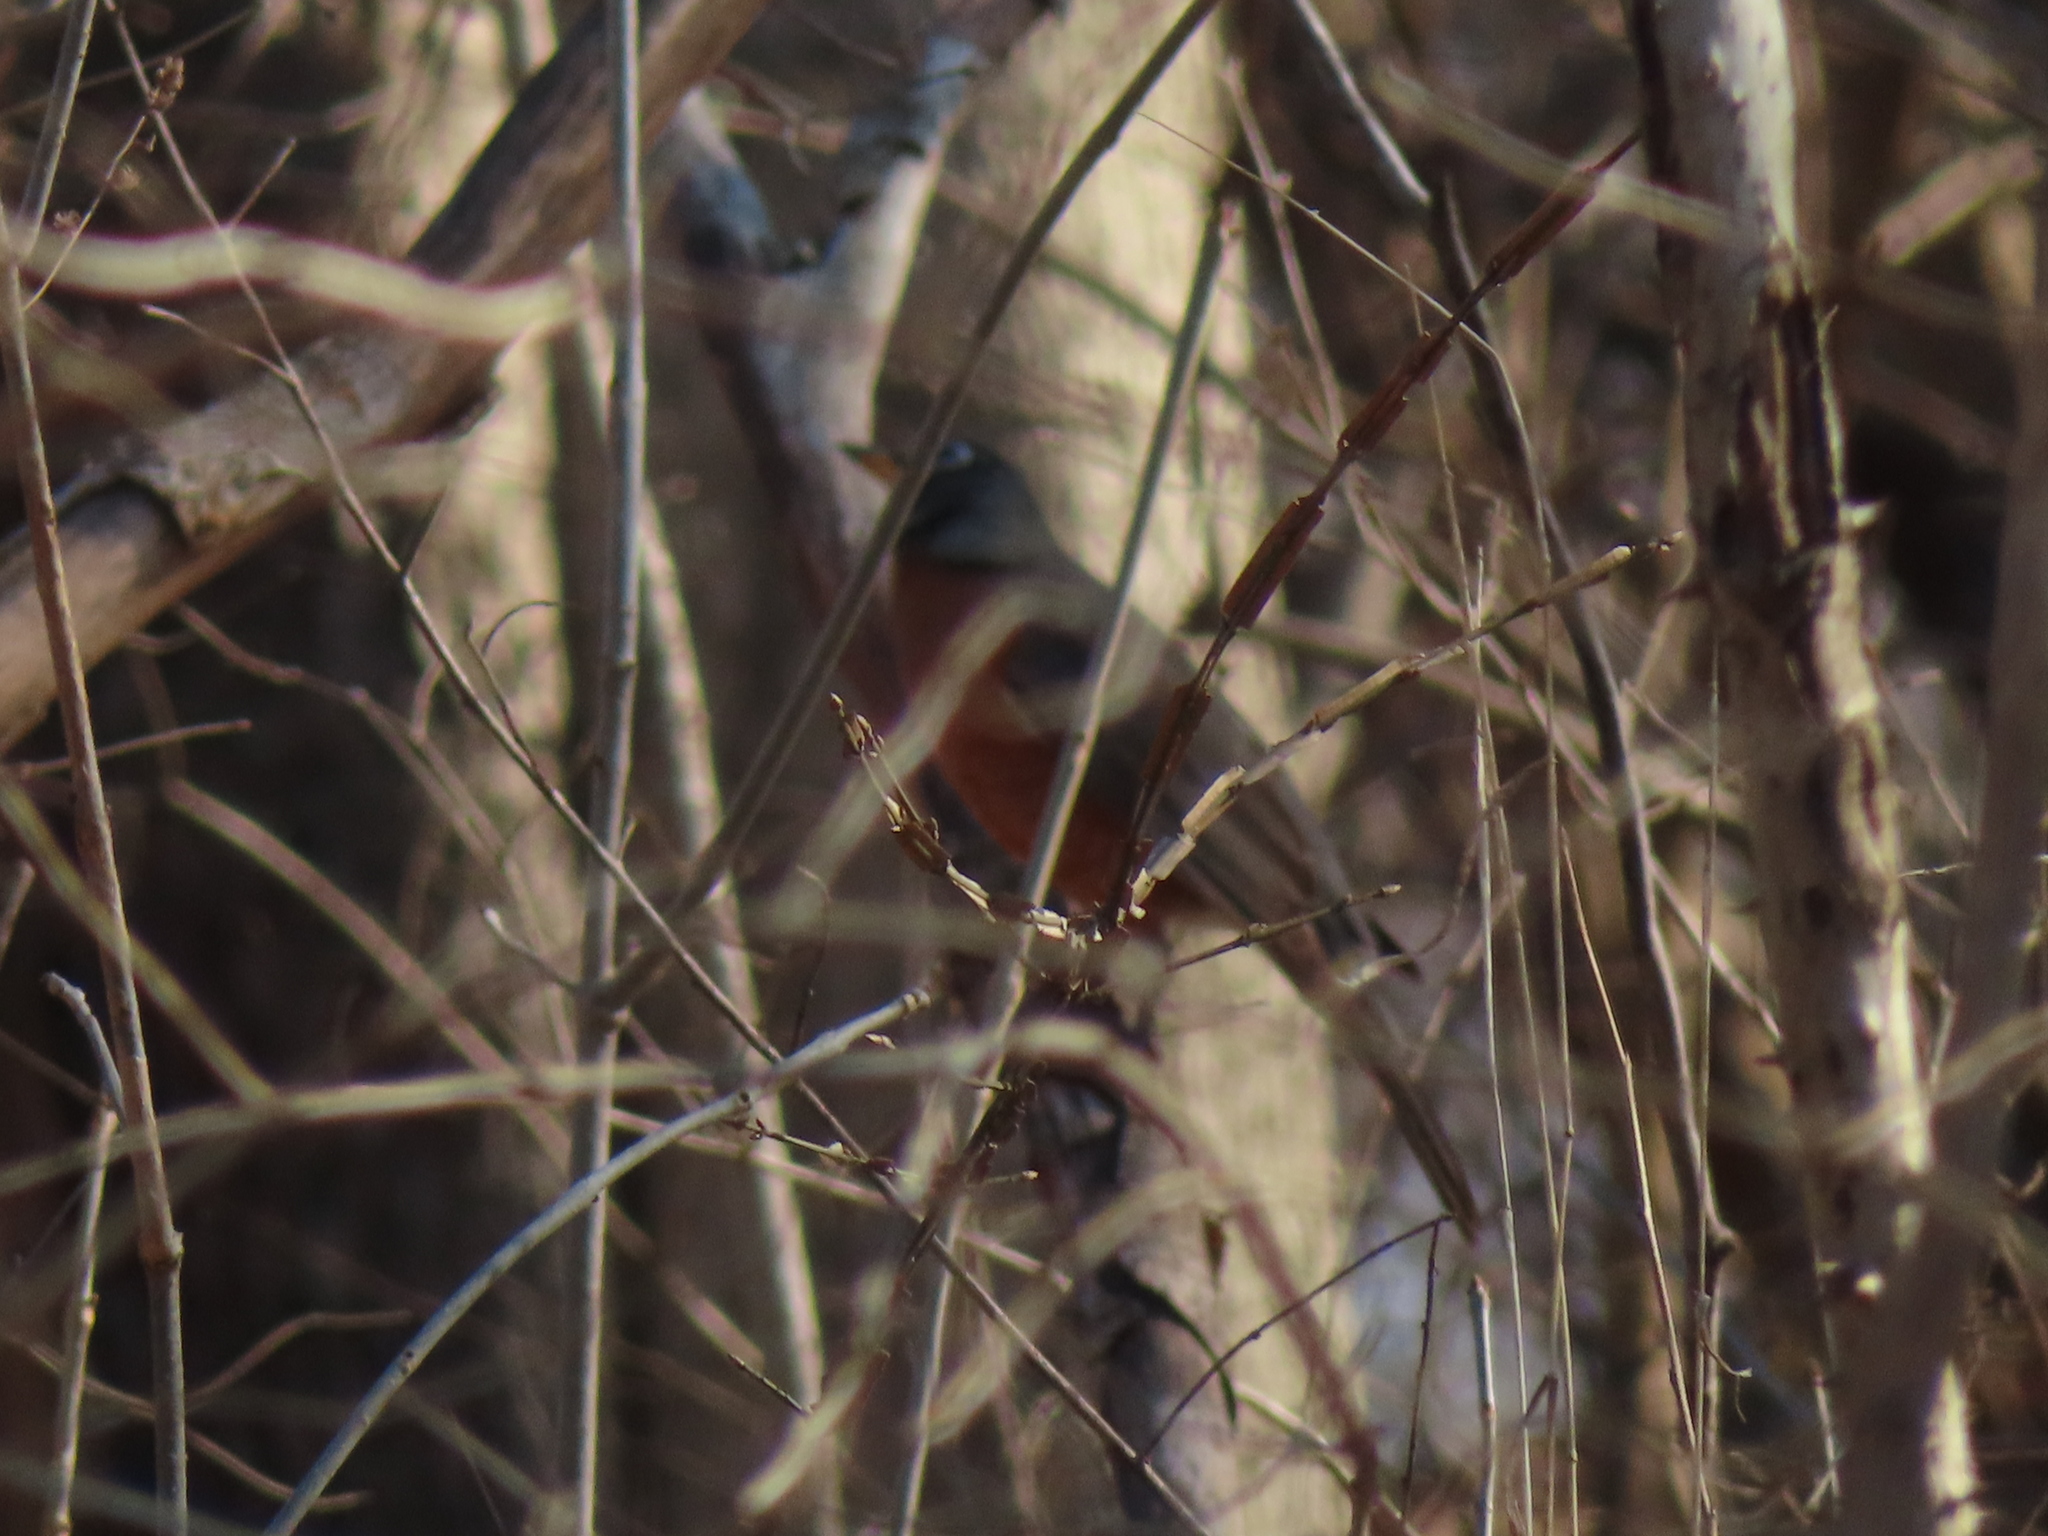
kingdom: Animalia
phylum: Chordata
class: Aves
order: Passeriformes
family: Turdidae
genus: Turdus
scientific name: Turdus migratorius
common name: American robin
